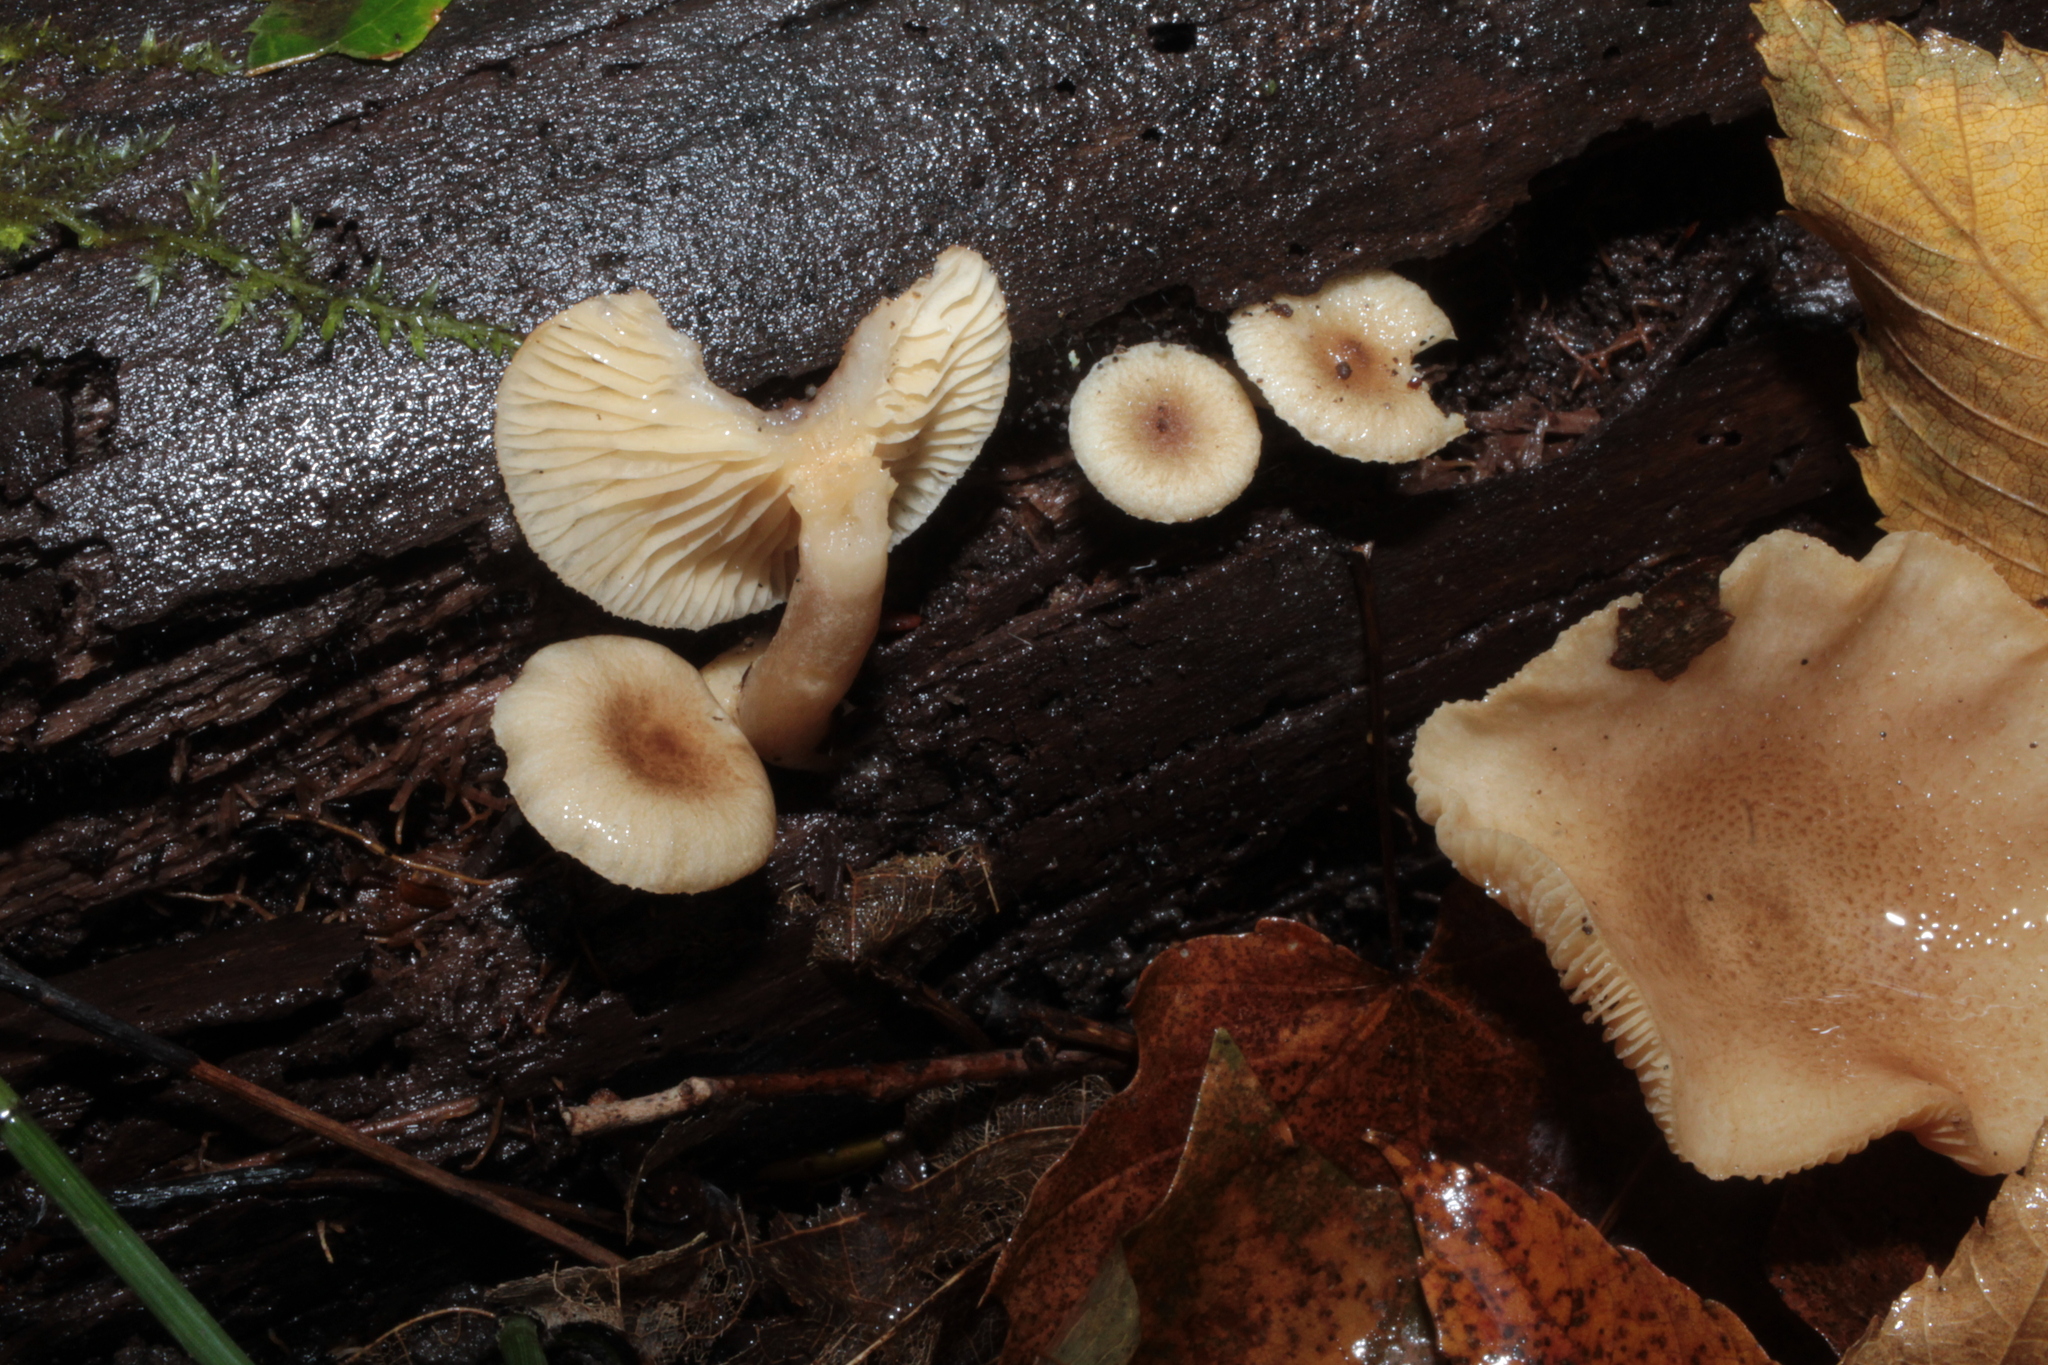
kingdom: Fungi
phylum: Basidiomycota
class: Agaricomycetes
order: Russulales
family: Russulaceae
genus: Lactarius
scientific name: Lactarius griseus
